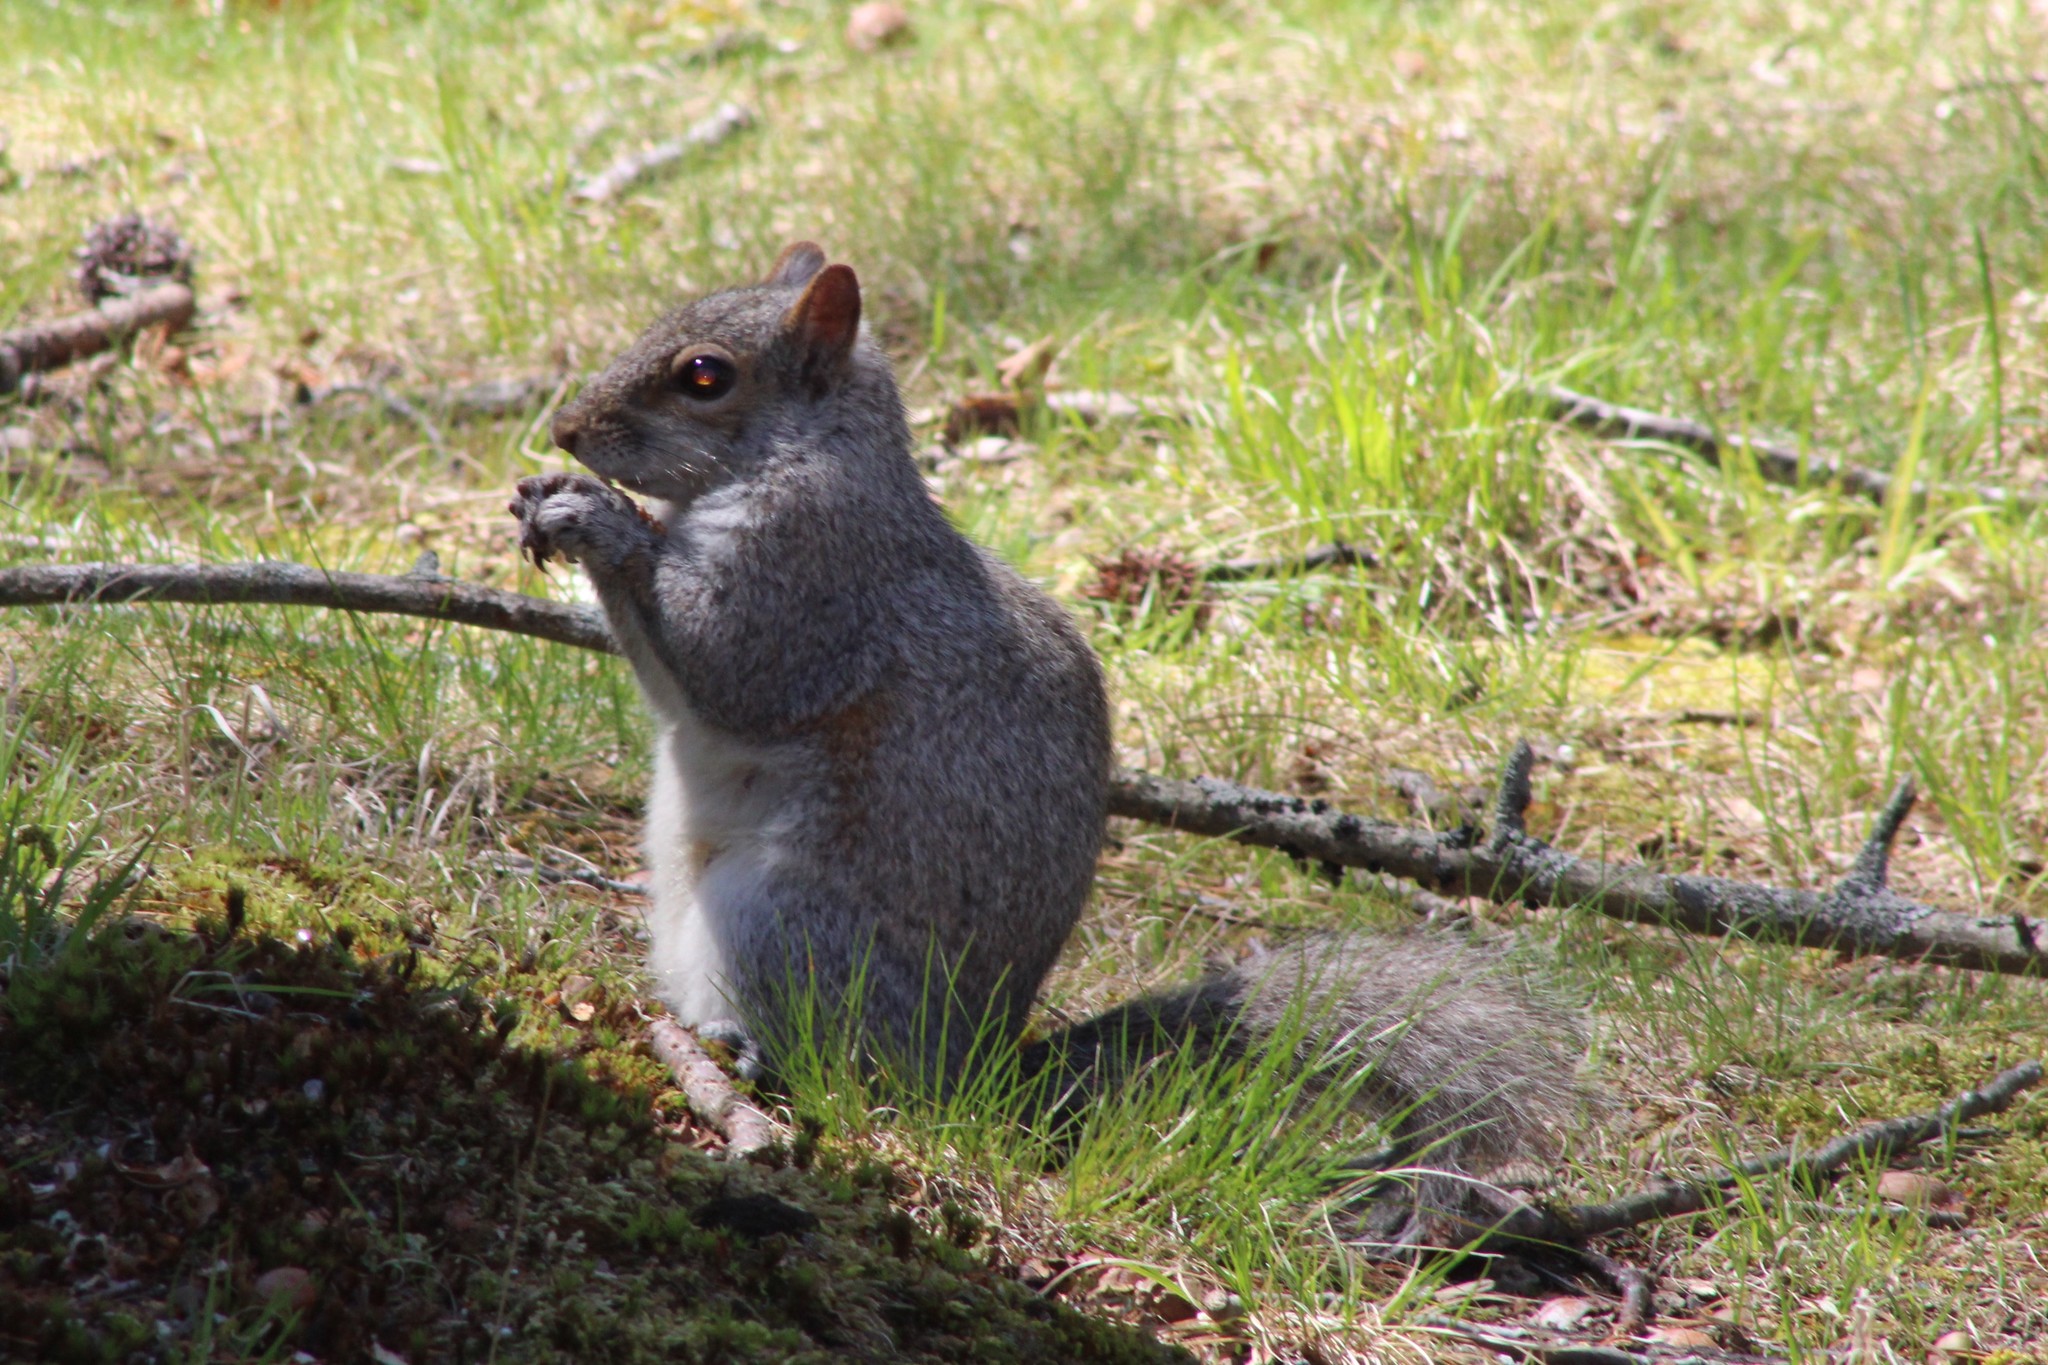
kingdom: Animalia
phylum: Chordata
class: Mammalia
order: Rodentia
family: Sciuridae
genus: Sciurus
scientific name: Sciurus carolinensis
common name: Eastern gray squirrel
